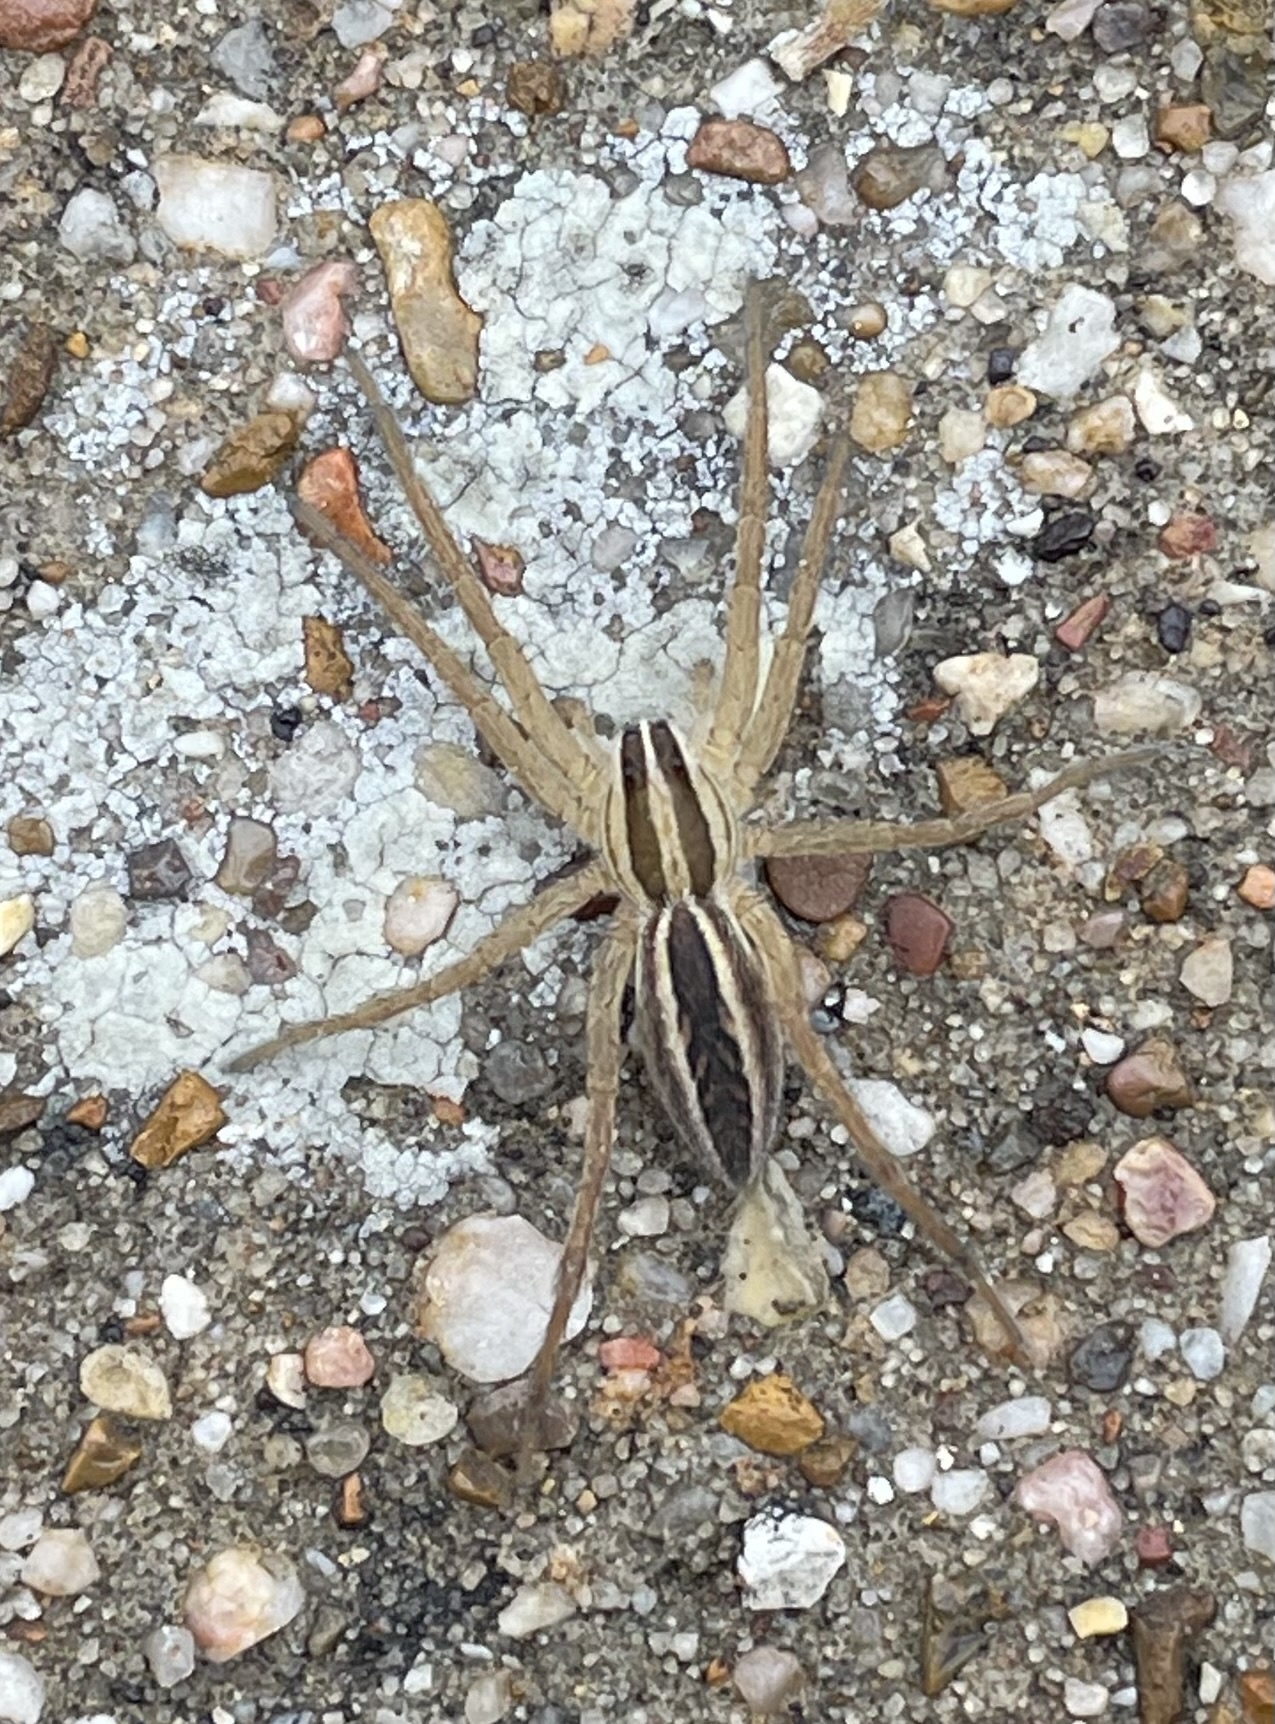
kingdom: Animalia
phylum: Arthropoda
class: Arachnida
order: Araneae
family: Lycosidae
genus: Rabidosa
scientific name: Rabidosa rabida
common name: Rabid wolf spider
